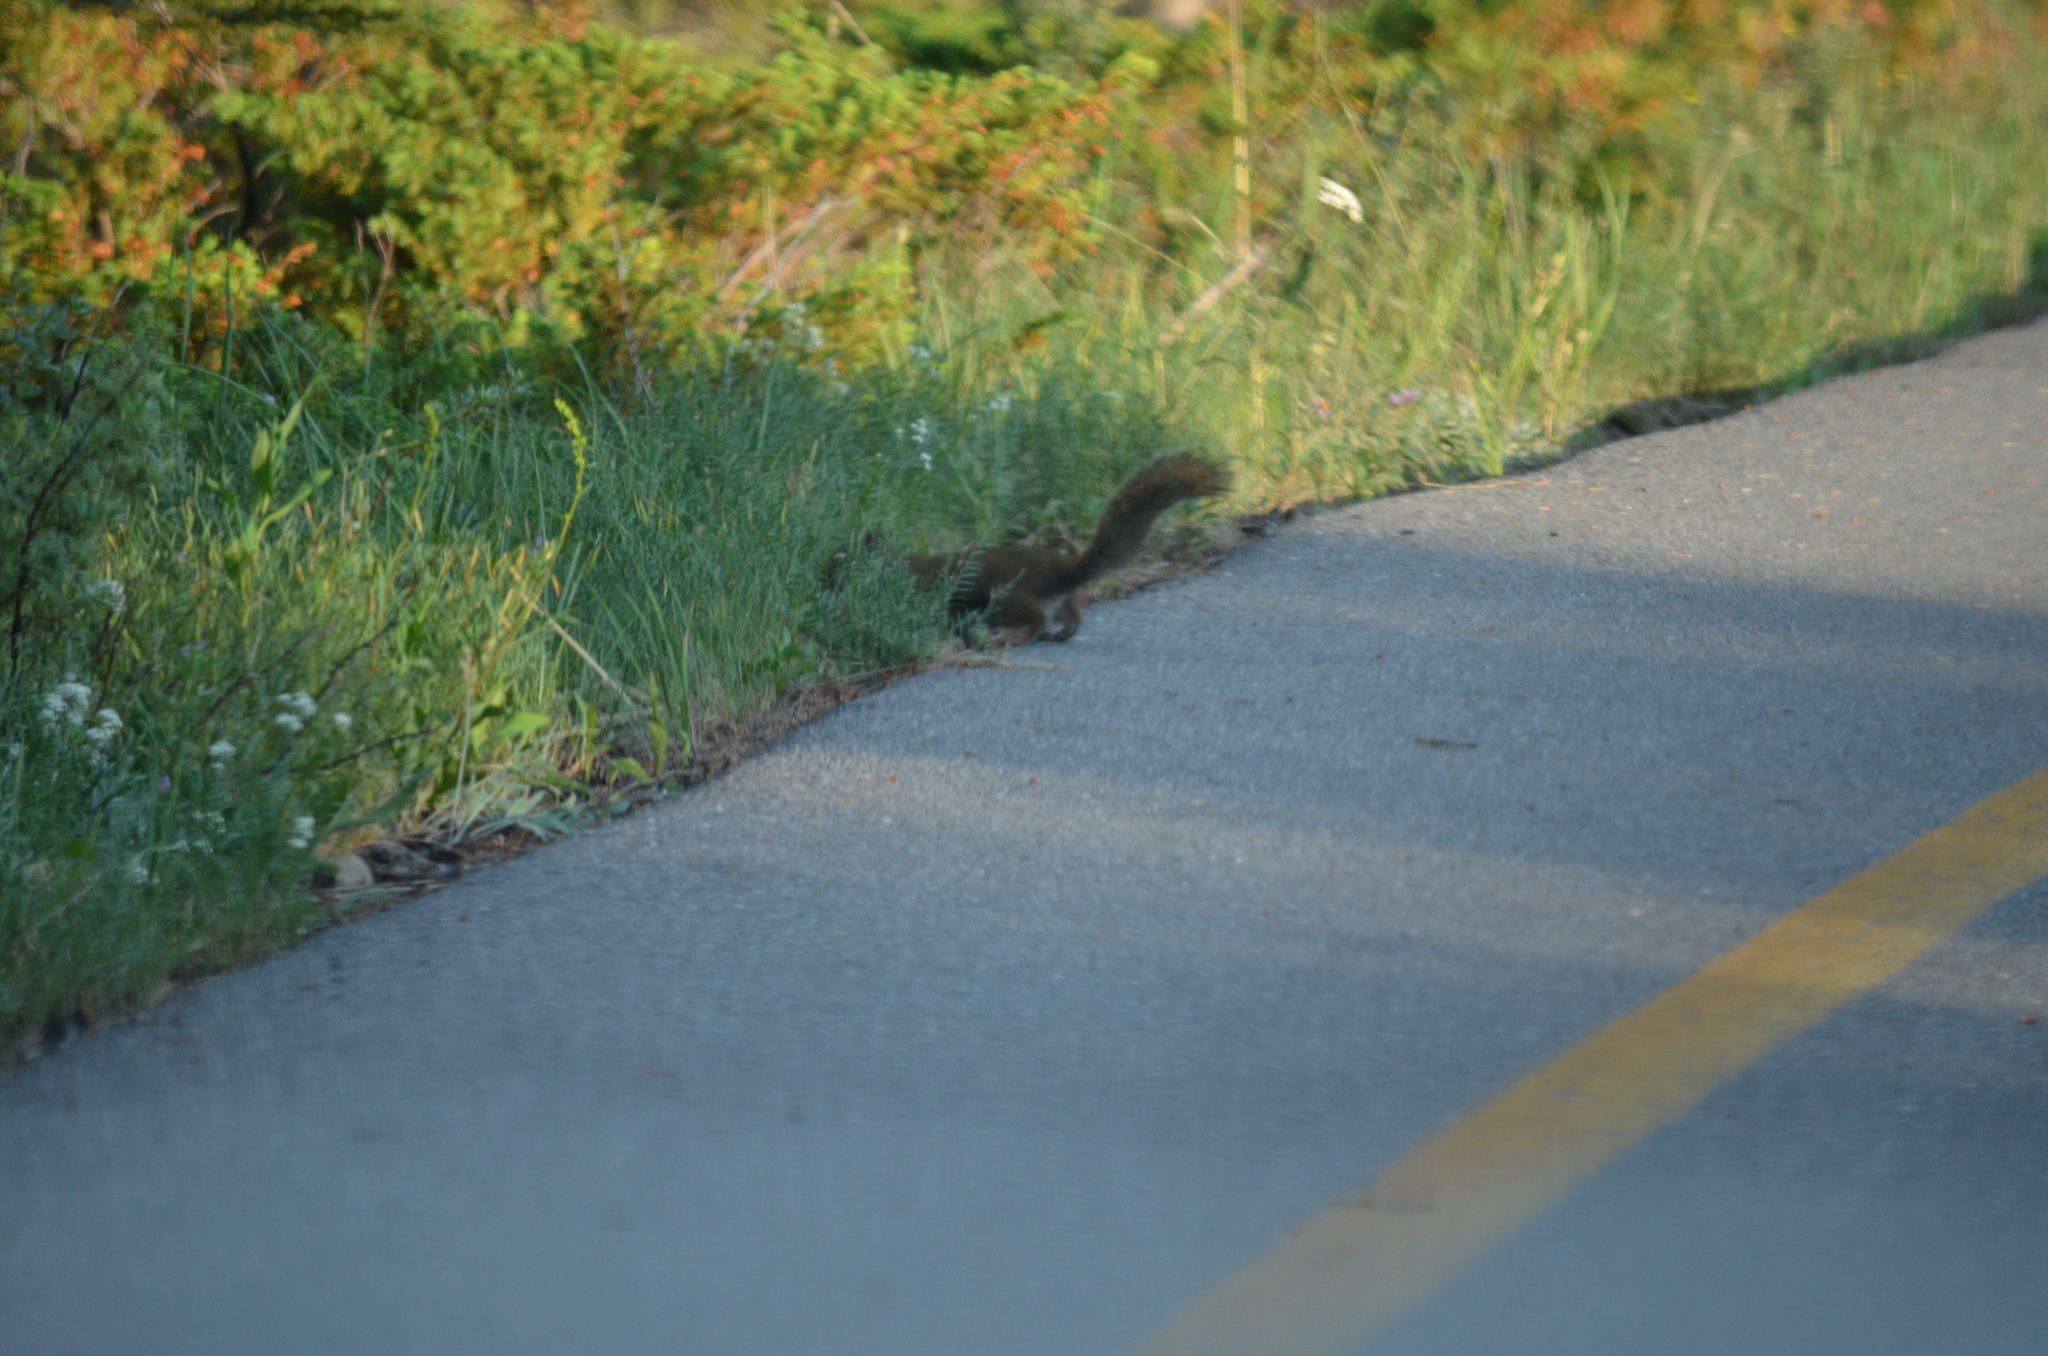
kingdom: Animalia
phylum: Chordata
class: Mammalia
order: Rodentia
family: Sciuridae
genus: Tamiasciurus
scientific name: Tamiasciurus hudsonicus
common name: Red squirrel
